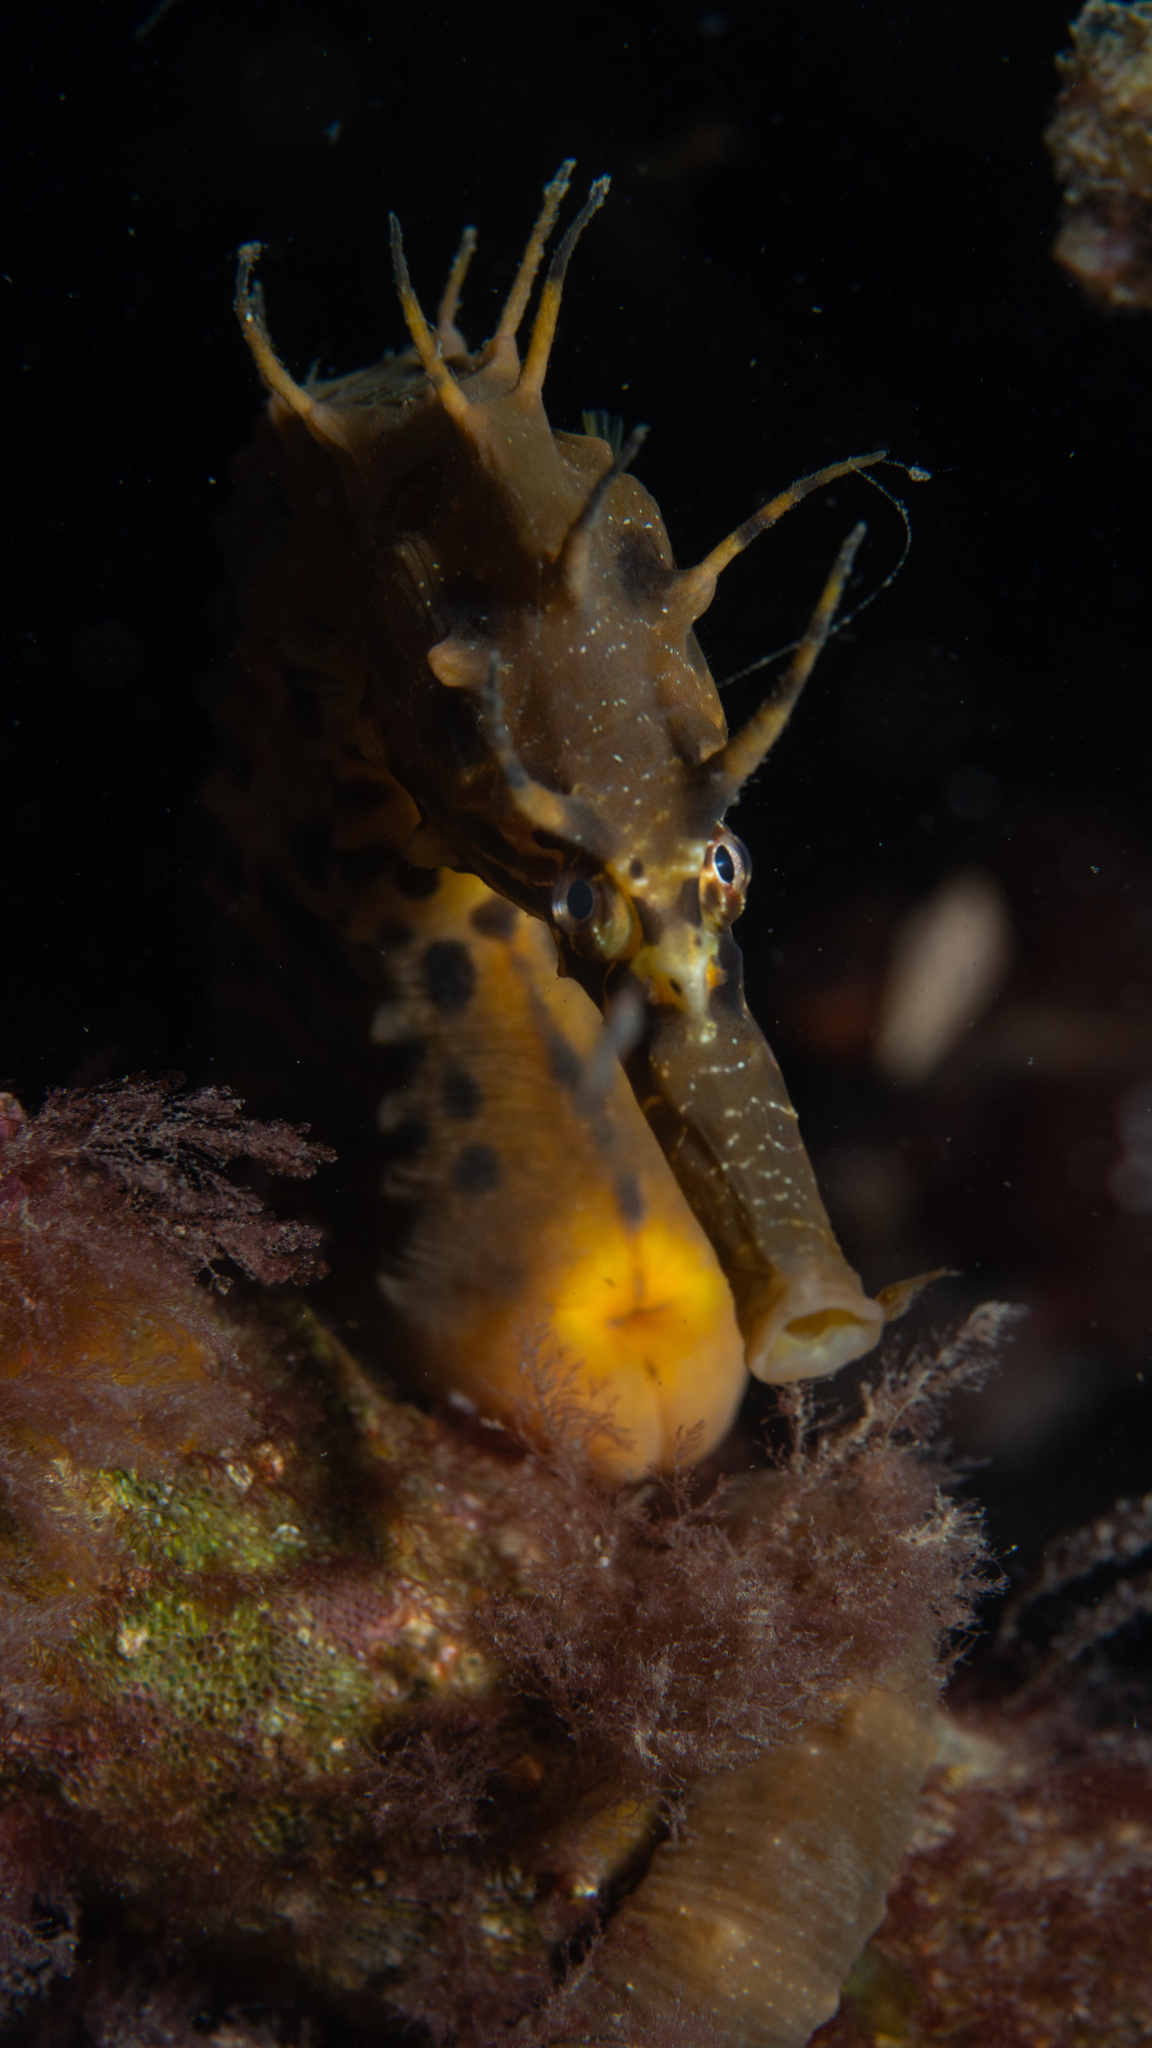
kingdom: Animalia
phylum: Chordata
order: Syngnathiformes
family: Syngnathidae
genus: Hippocampus
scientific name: Hippocampus abdominalis
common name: Big-belly seahorse
